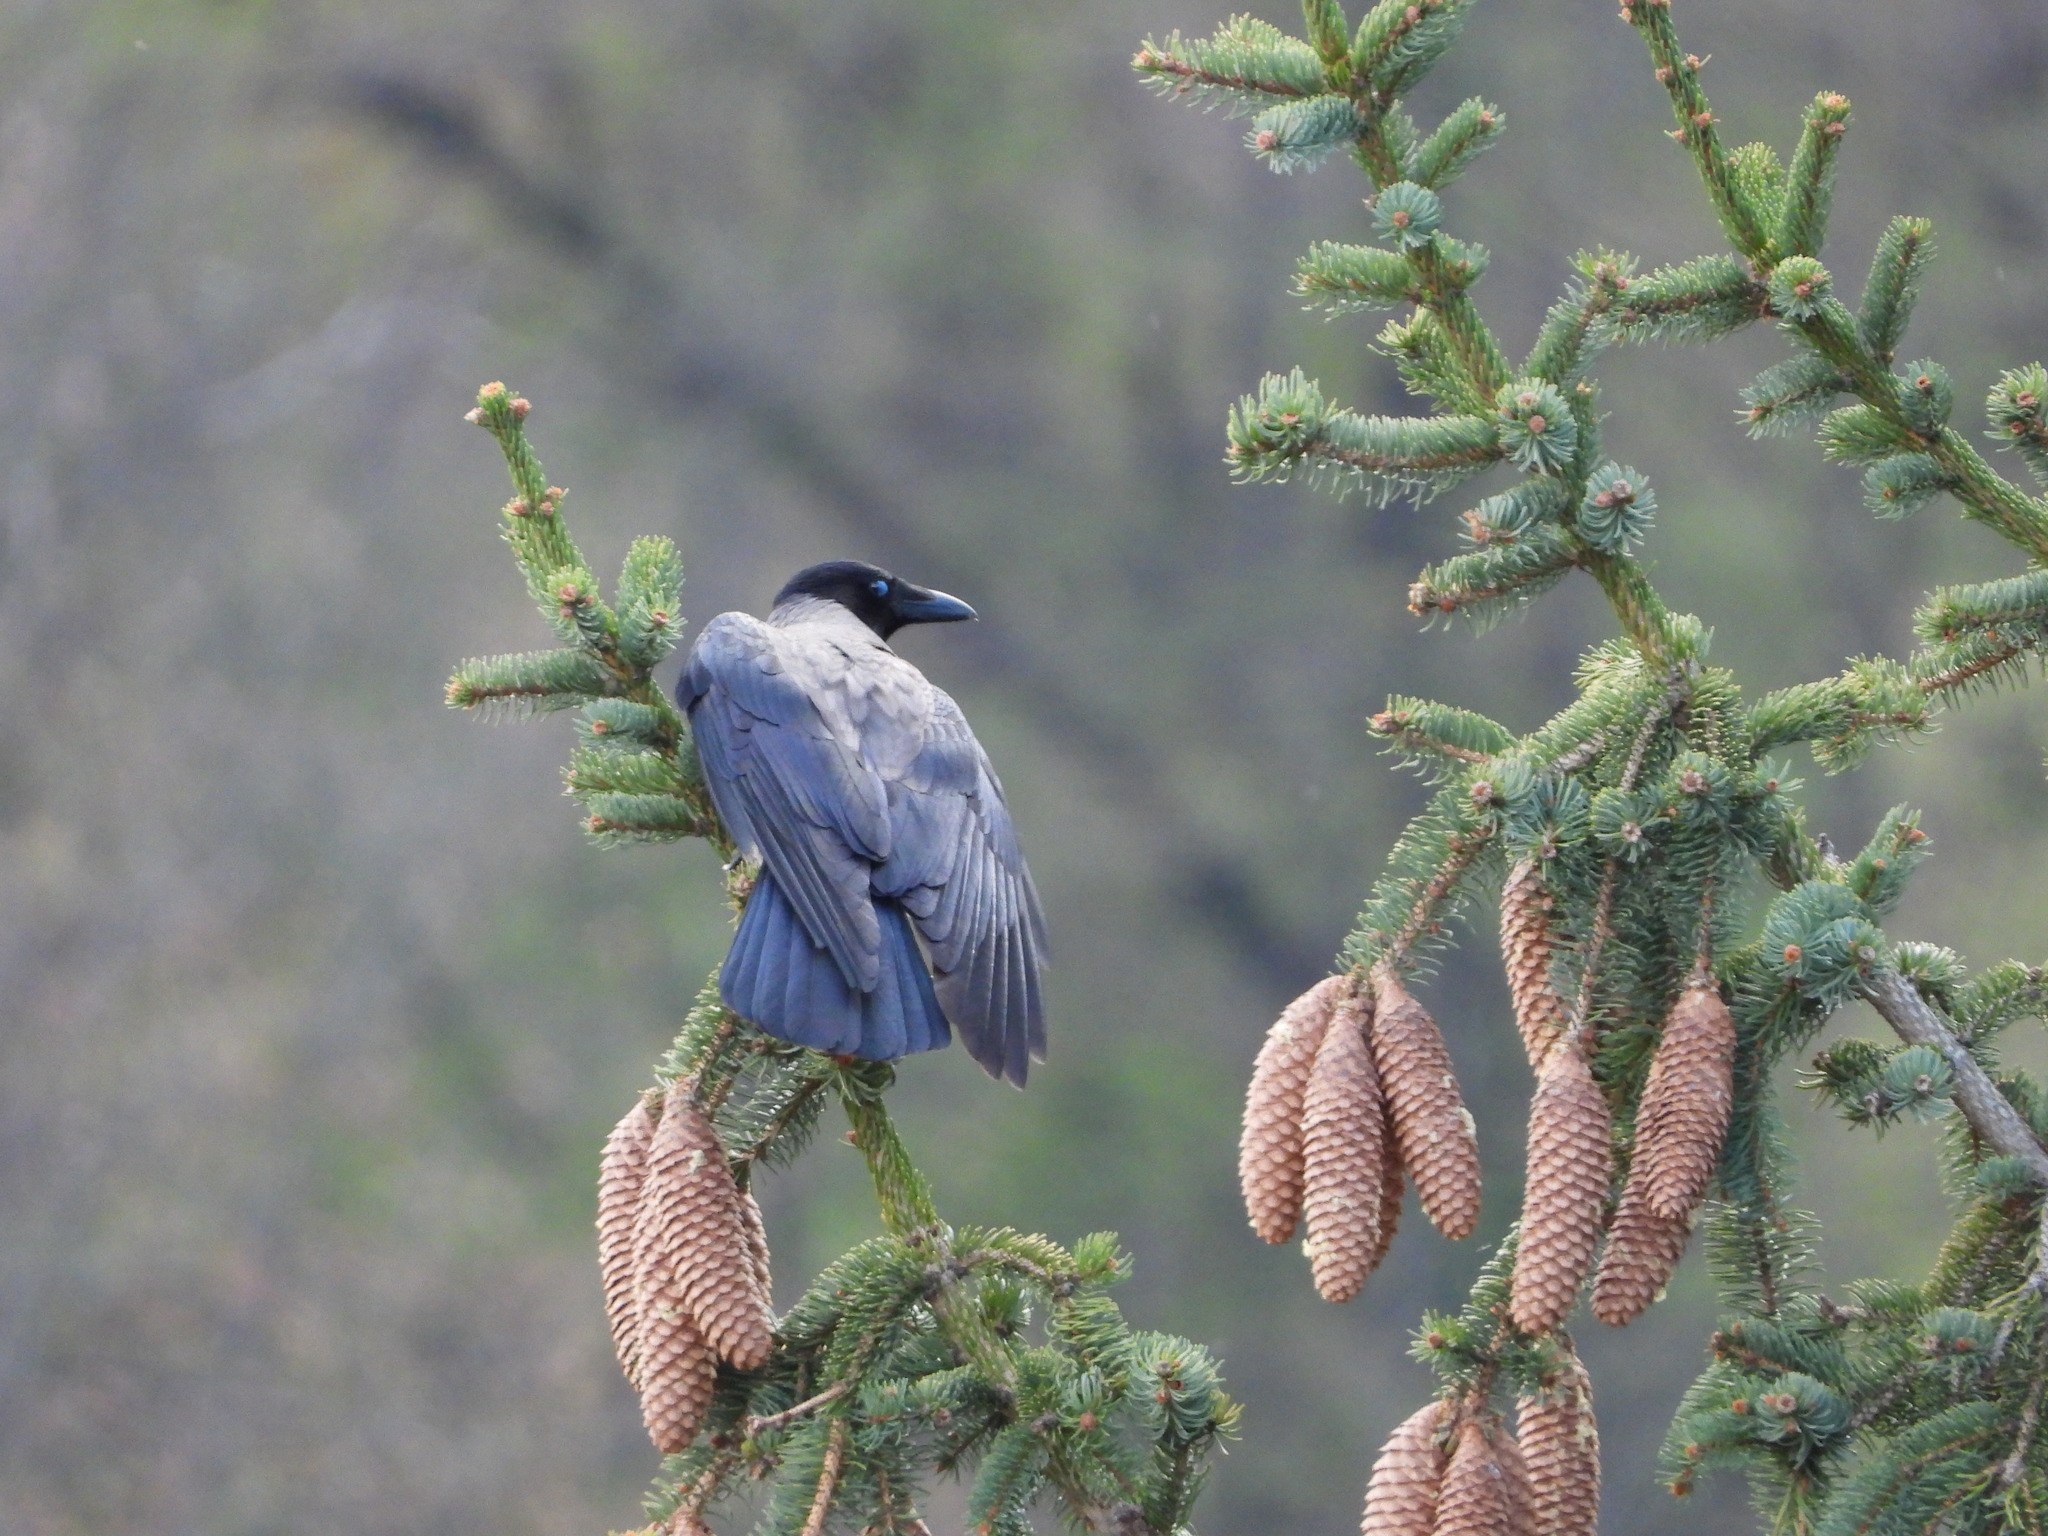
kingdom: Animalia
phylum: Chordata
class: Aves
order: Passeriformes
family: Corvidae
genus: Corvus
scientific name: Corvus cornix
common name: Hooded crow
